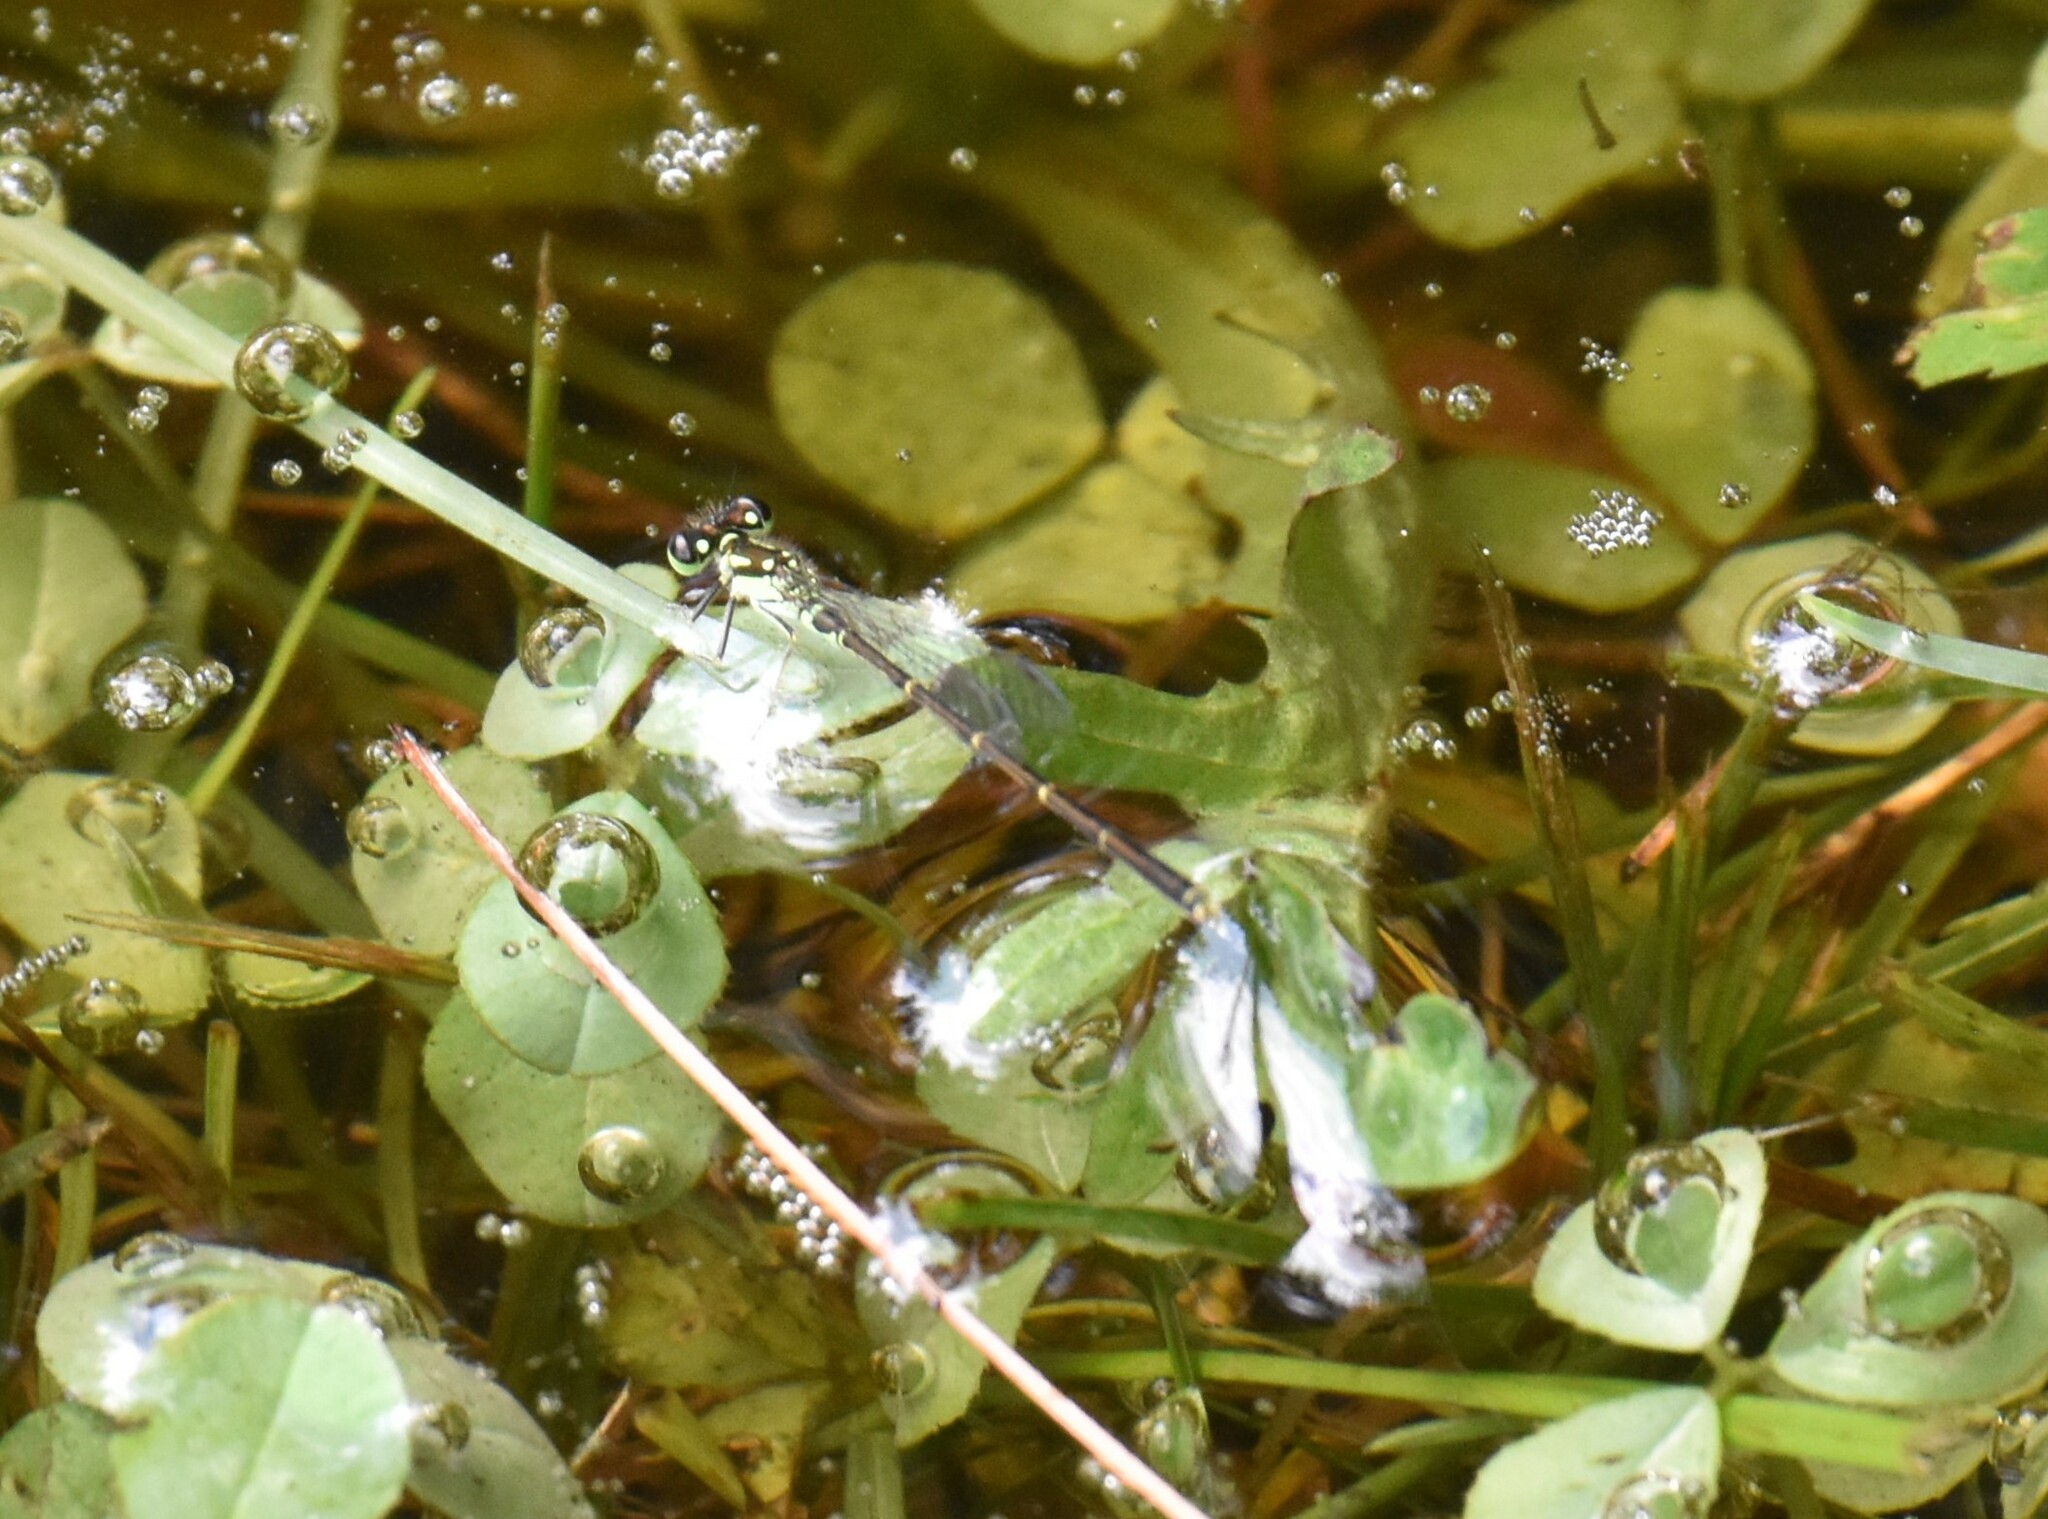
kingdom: Animalia
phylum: Arthropoda
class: Insecta
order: Odonata
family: Coenagrionidae
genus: Ischnura
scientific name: Ischnura posita
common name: Fragile forktail
